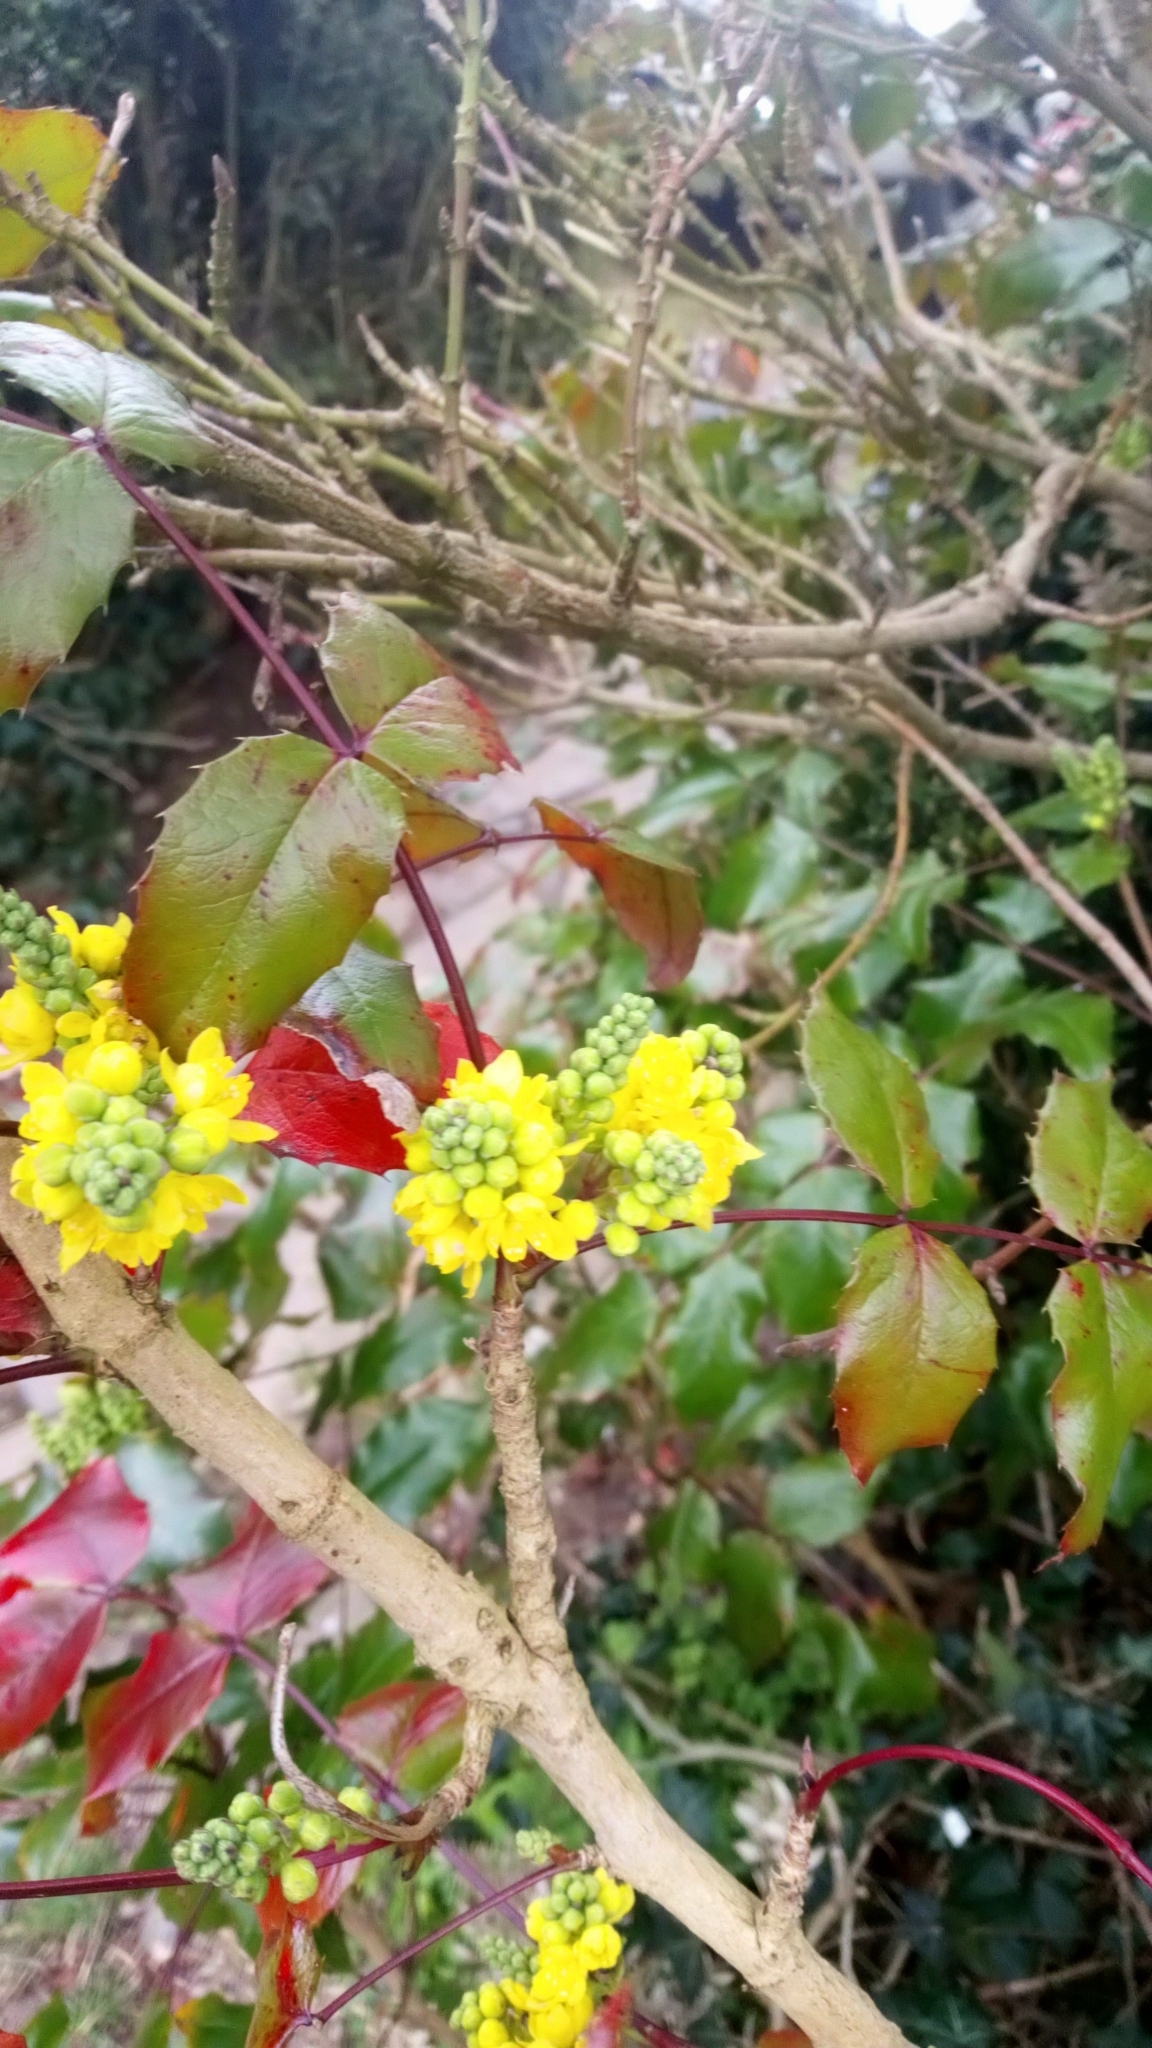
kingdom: Plantae
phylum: Tracheophyta
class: Magnoliopsida
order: Ranunculales
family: Berberidaceae
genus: Mahonia
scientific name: Mahonia aquifolium
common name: Oregon-grape
